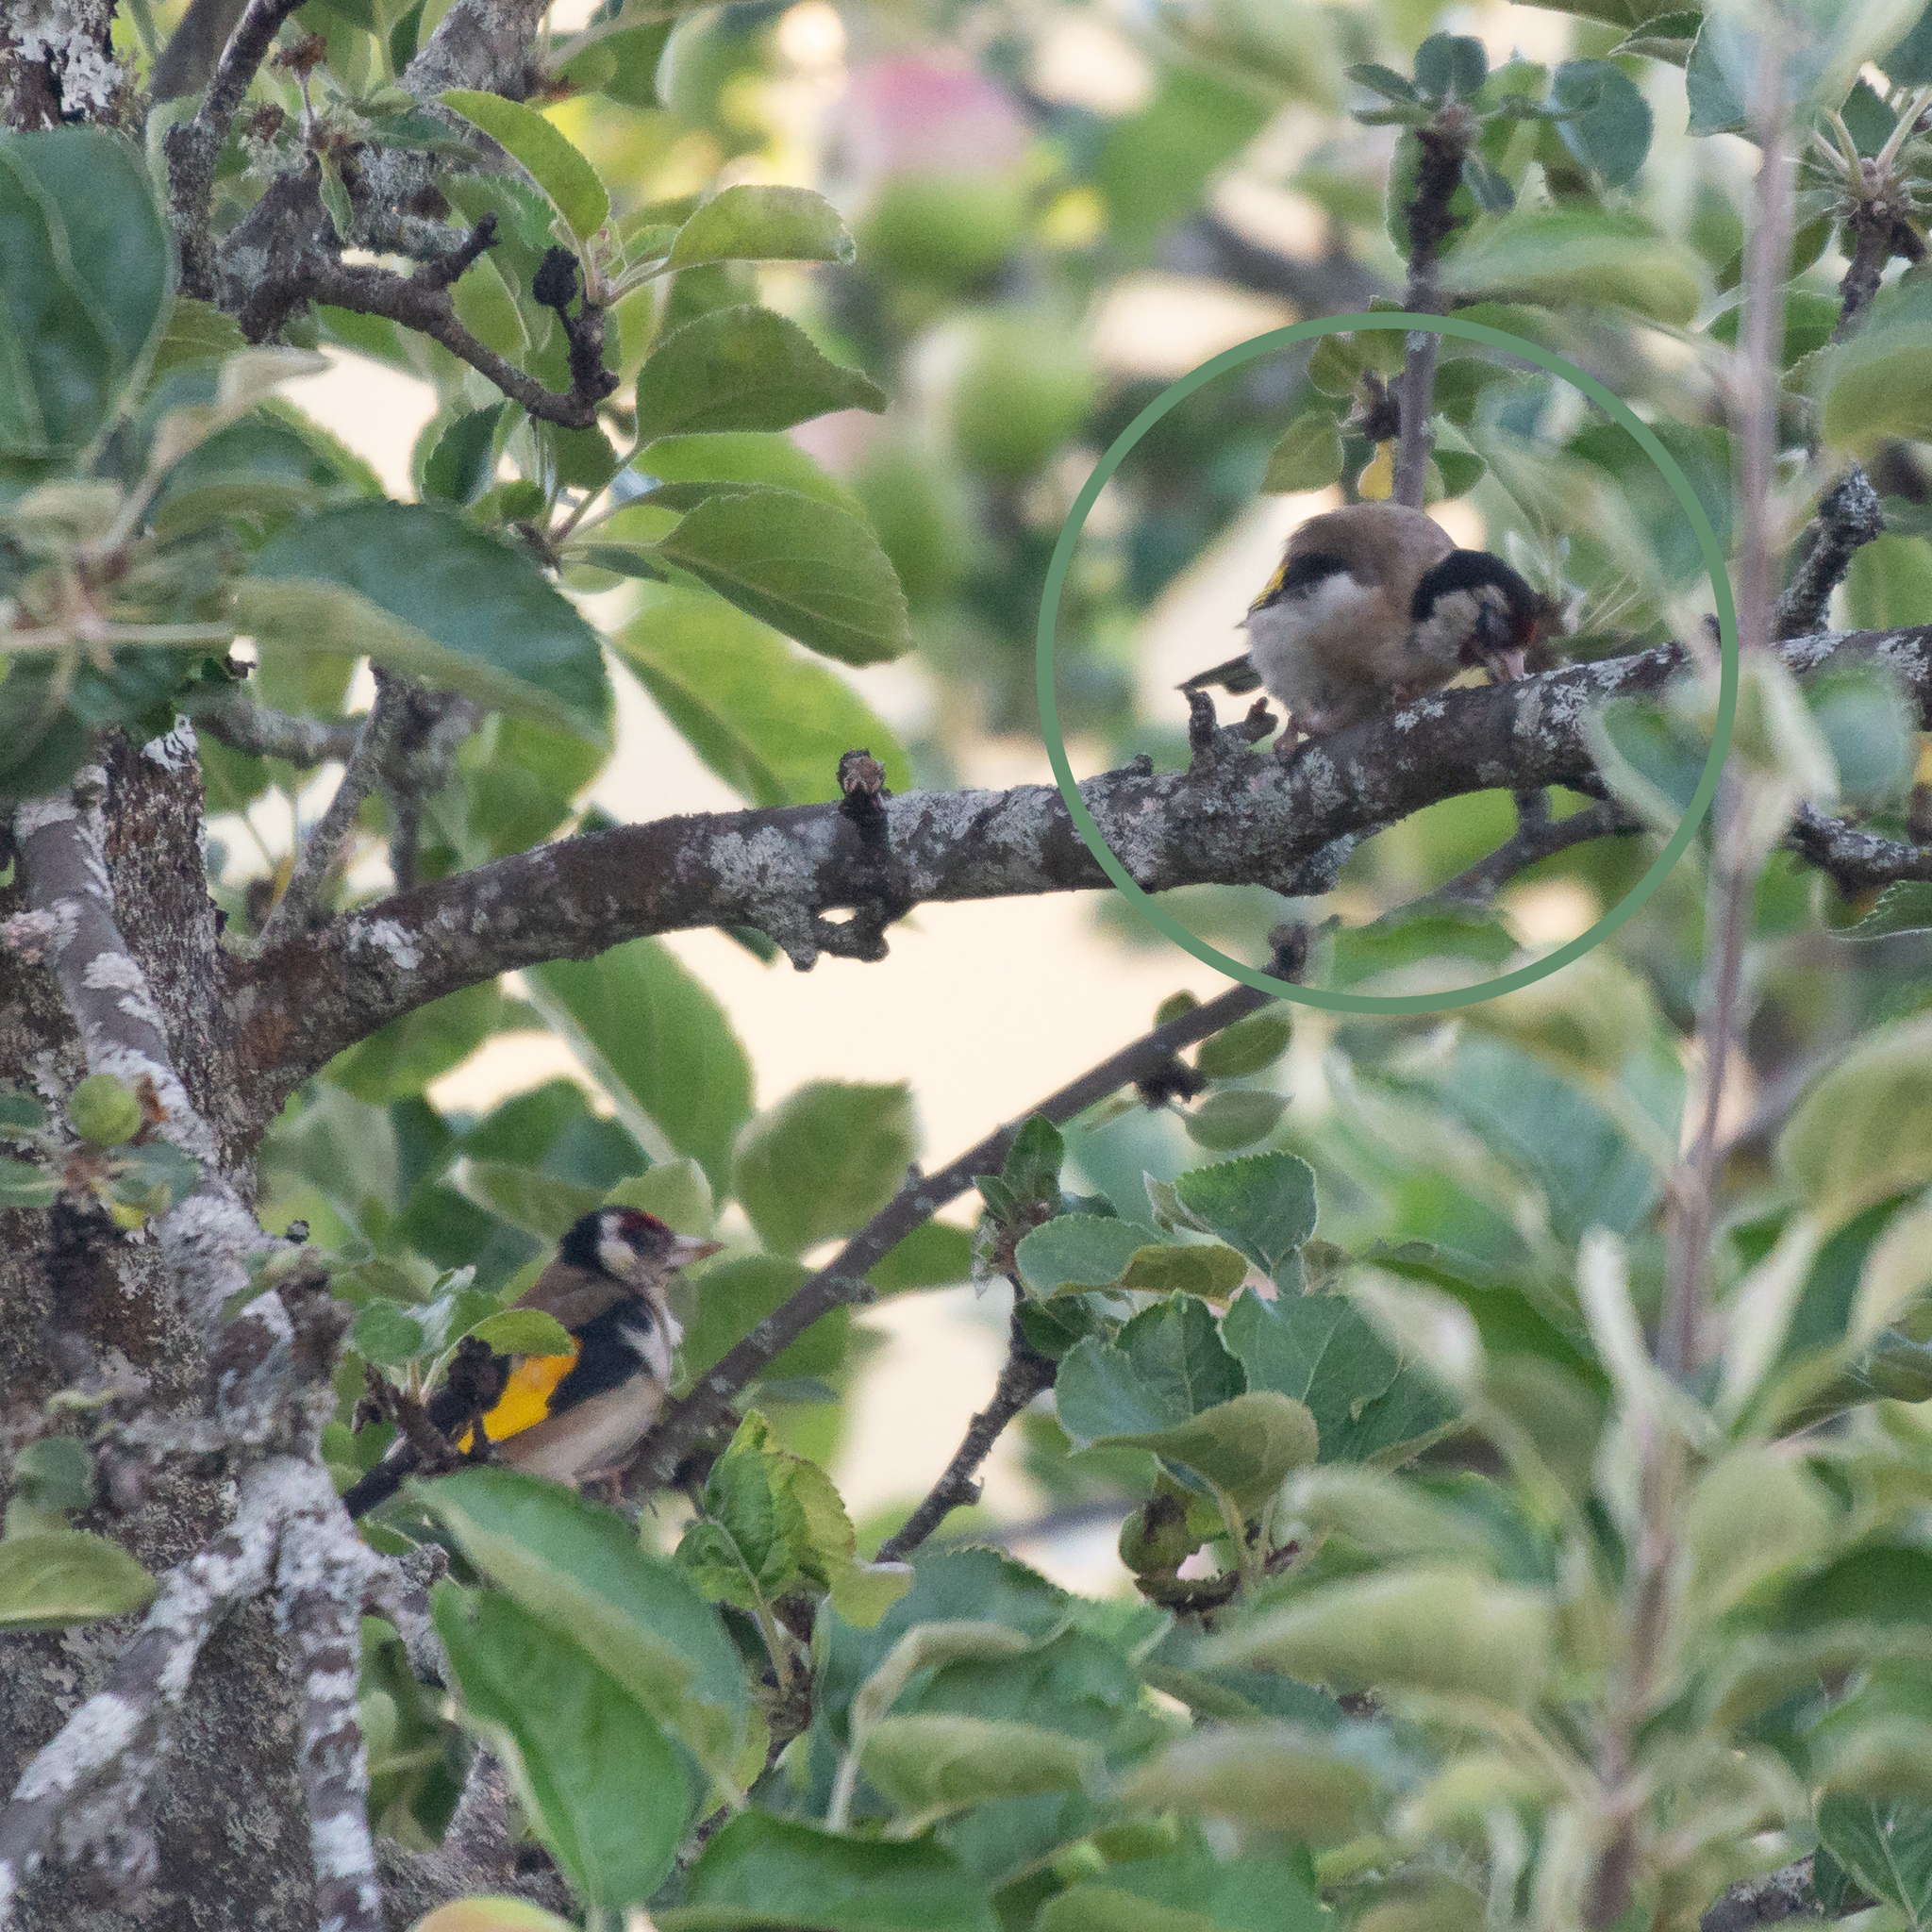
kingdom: Animalia
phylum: Chordata
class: Aves
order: Passeriformes
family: Fringillidae
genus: Carduelis
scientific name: Carduelis carduelis
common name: European goldfinch
